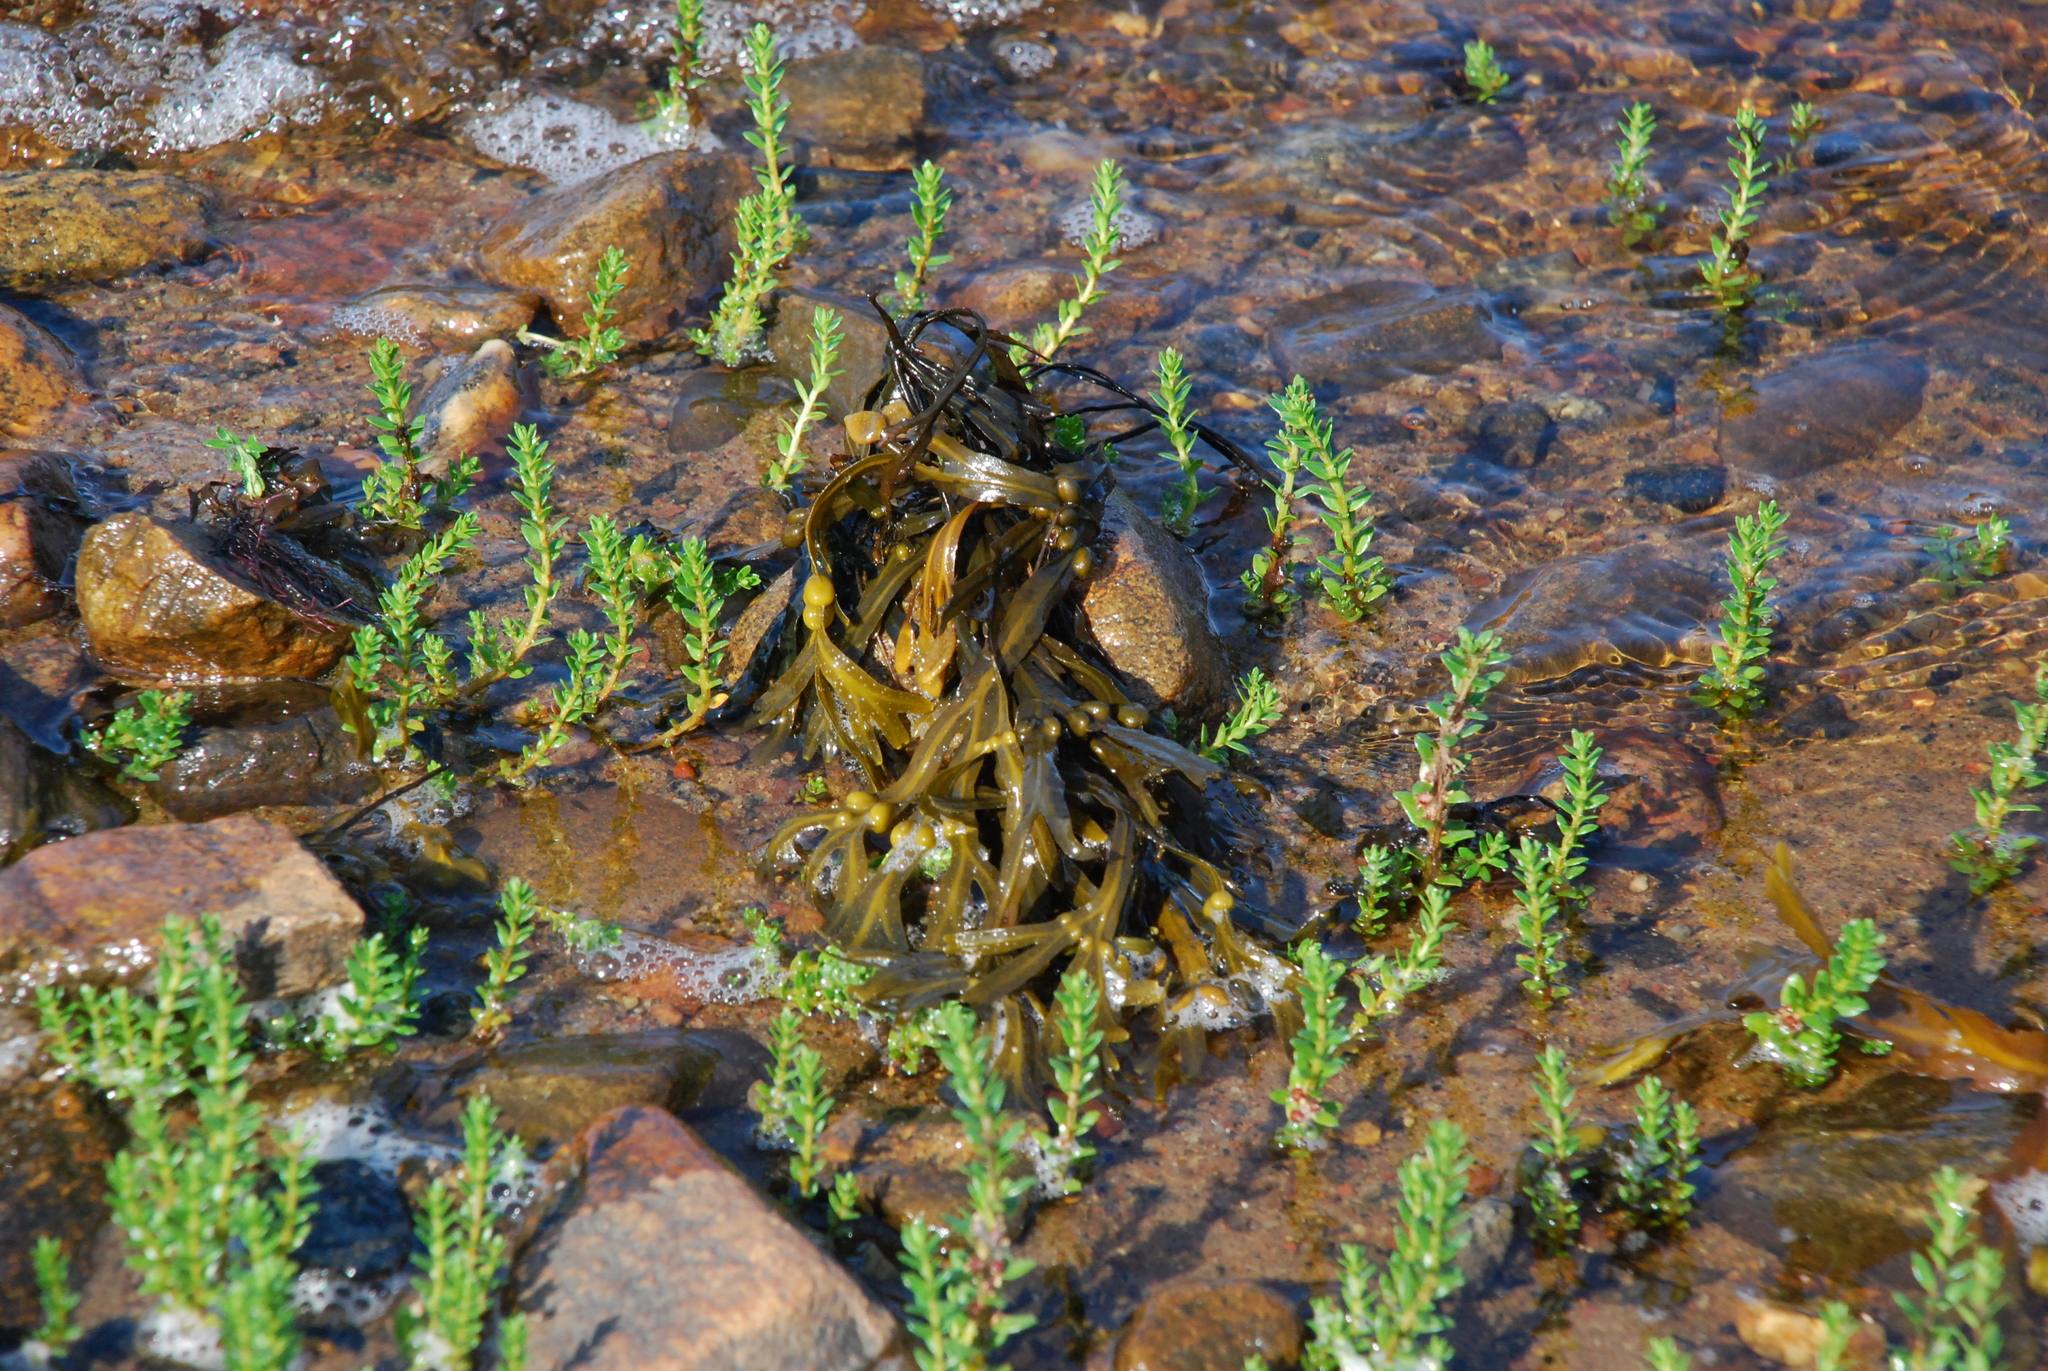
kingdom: Plantae
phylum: Tracheophyta
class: Magnoliopsida
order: Ericales
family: Primulaceae
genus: Lysimachia
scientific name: Lysimachia maritima
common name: Sea milkwort
